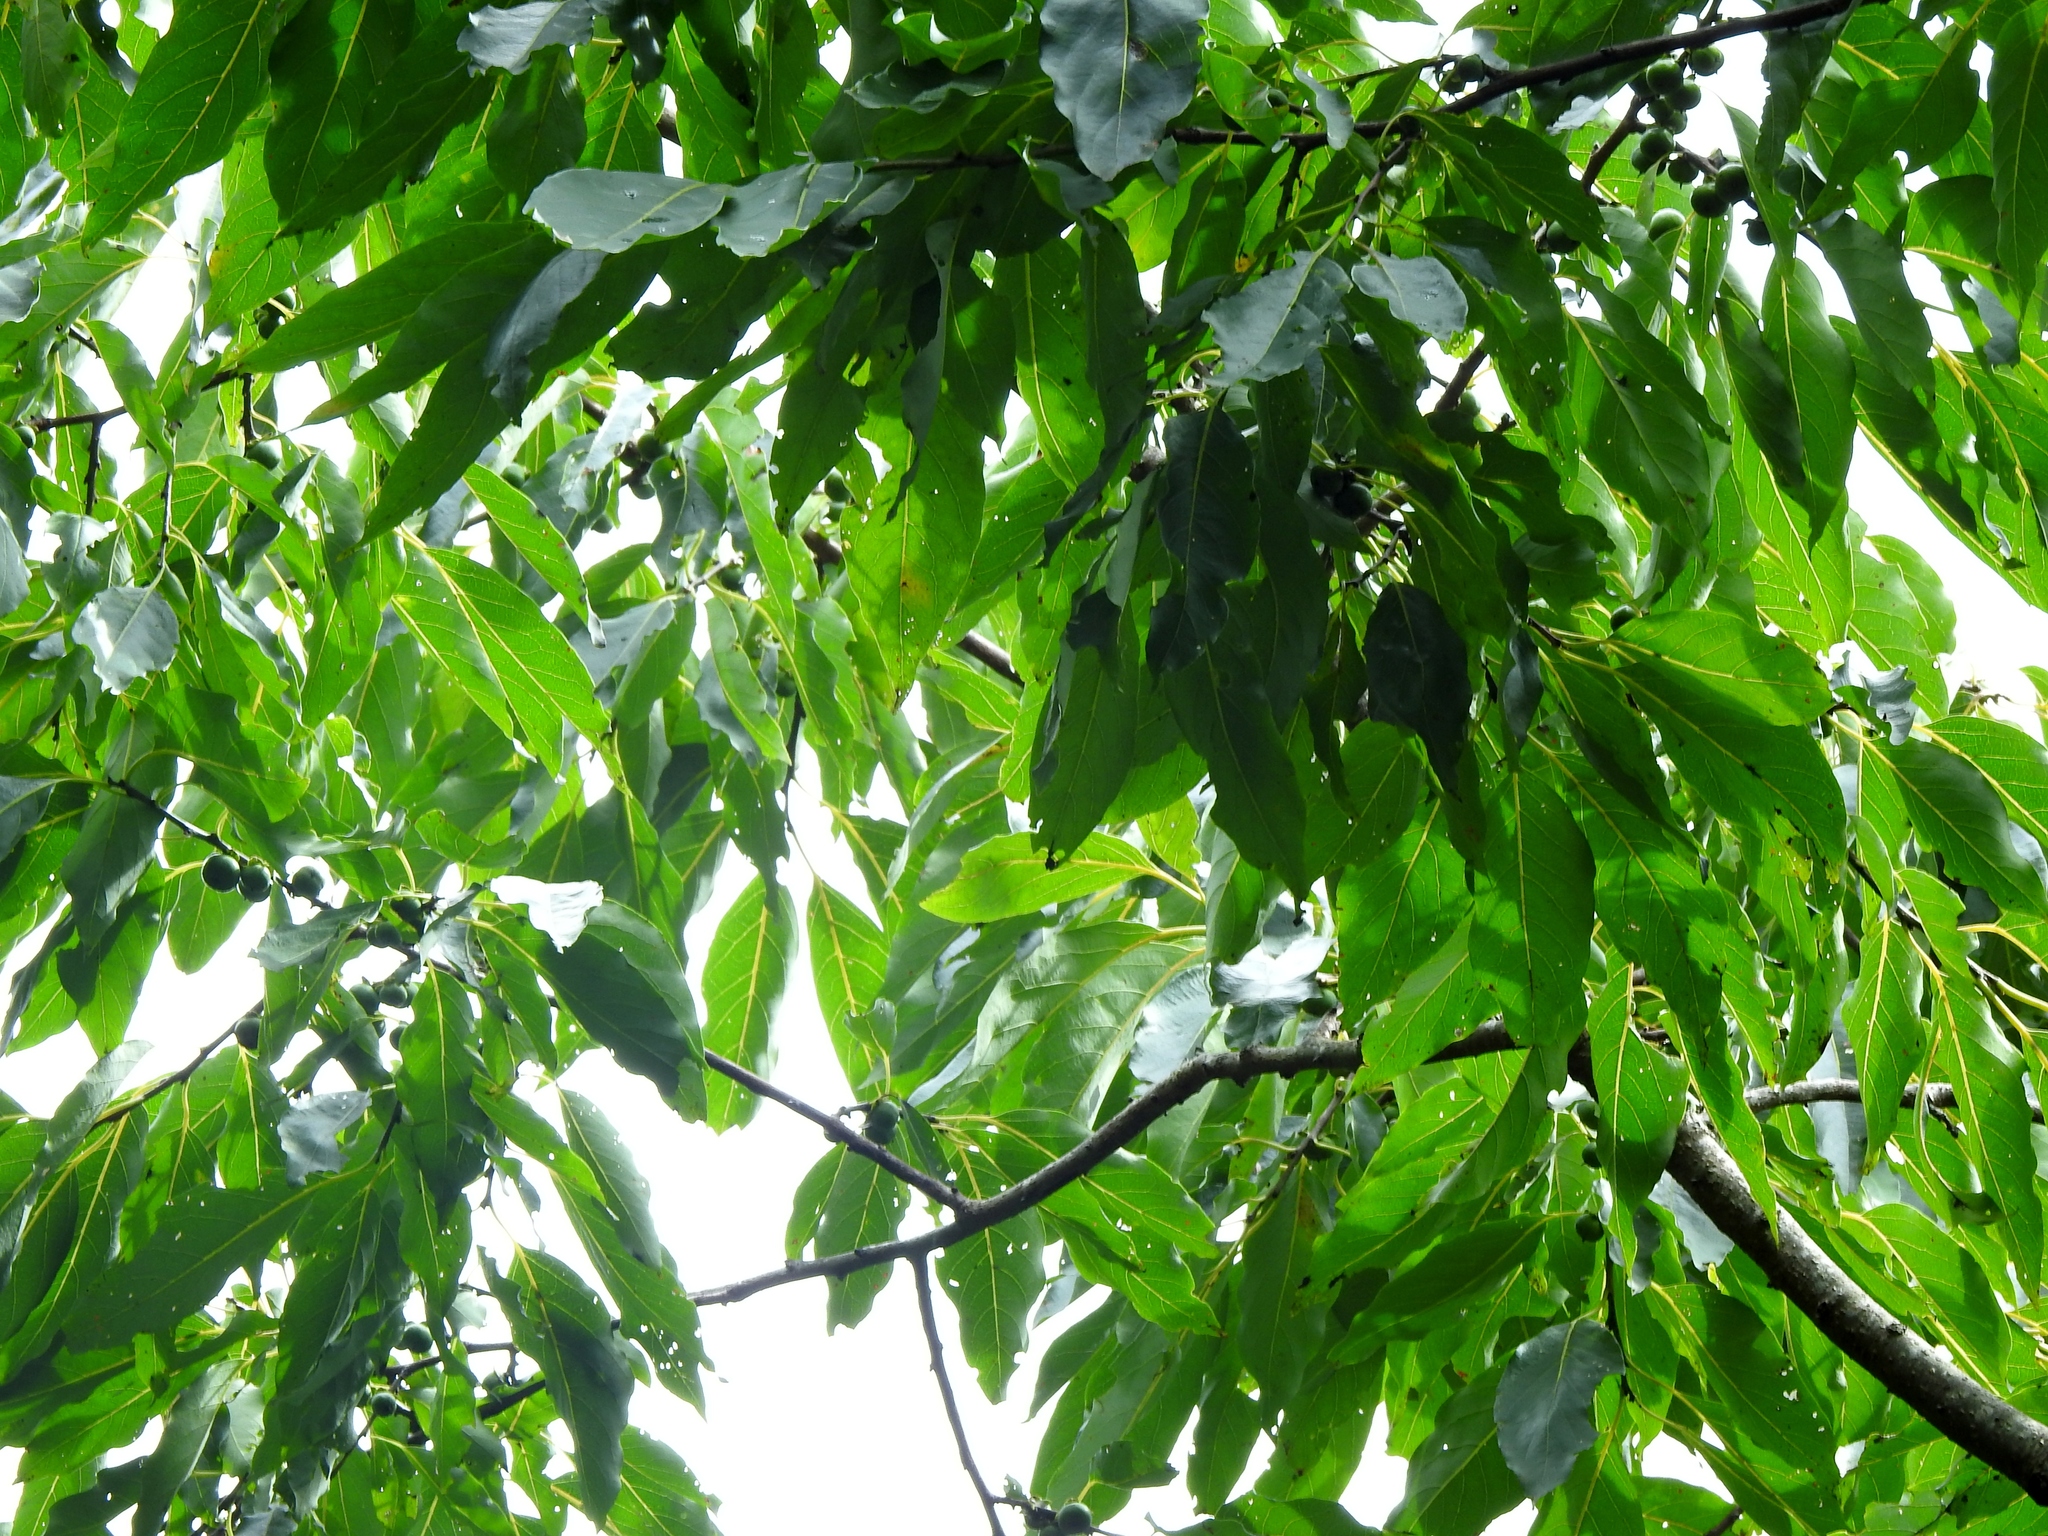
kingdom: Plantae
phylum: Tracheophyta
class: Magnoliopsida
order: Ericales
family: Ebenaceae
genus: Diospyros
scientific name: Diospyros japonica
